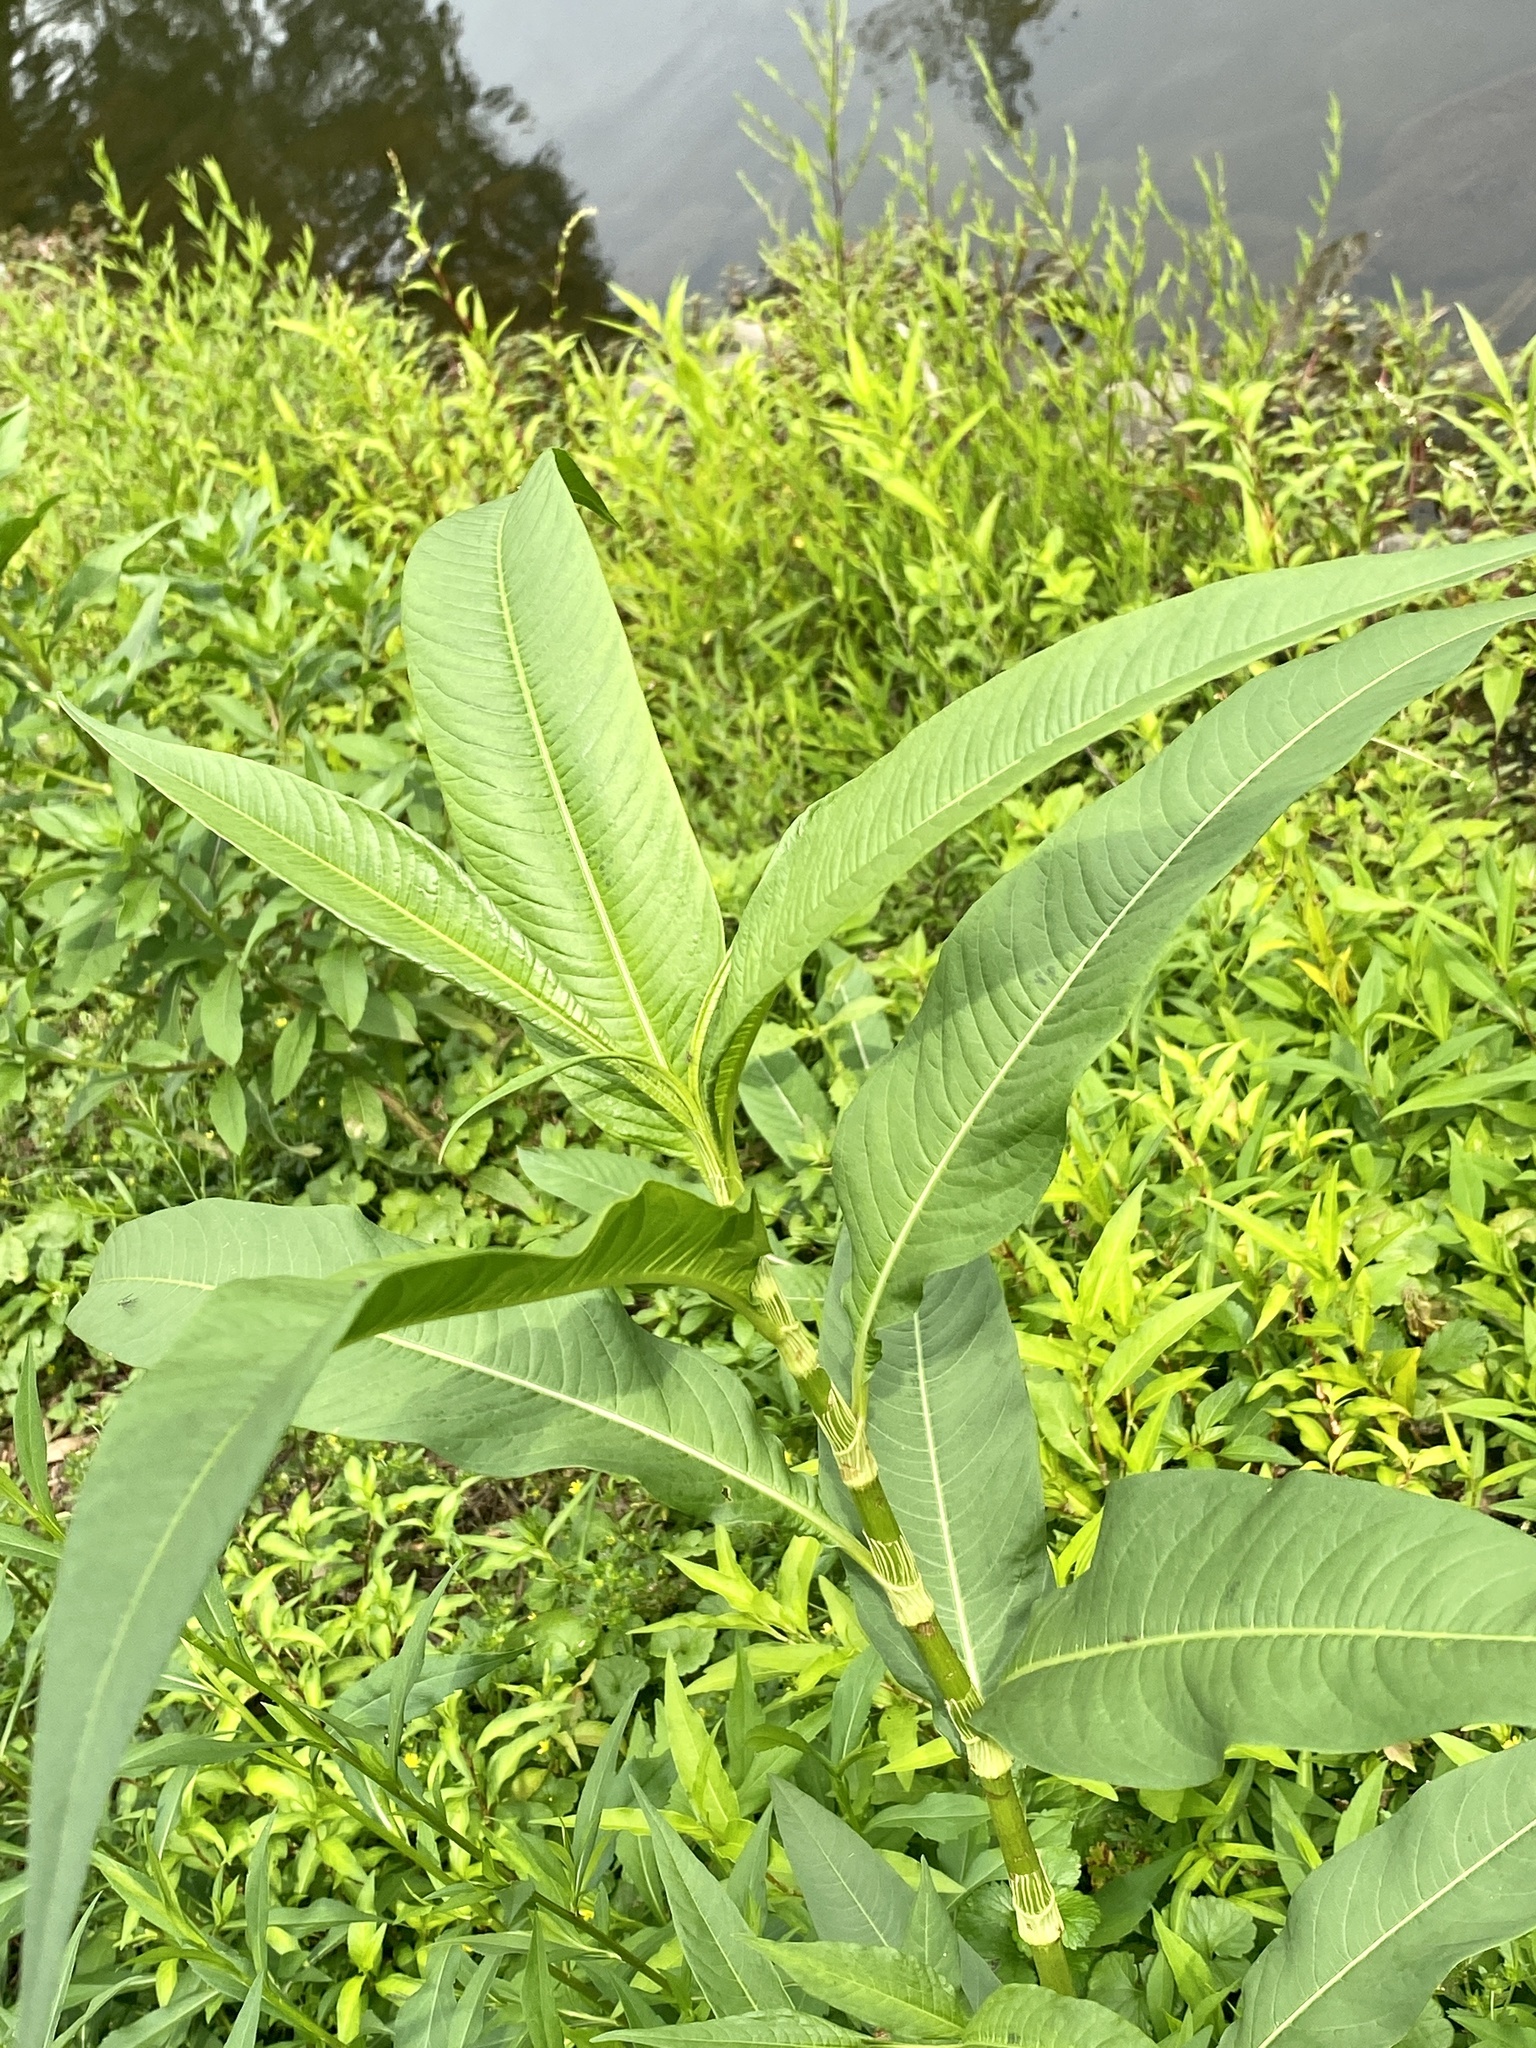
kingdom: Plantae
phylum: Tracheophyta
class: Magnoliopsida
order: Caryophyllales
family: Polygonaceae
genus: Persicaria
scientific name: Persicaria lapathifolia
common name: Curlytop knotweed
